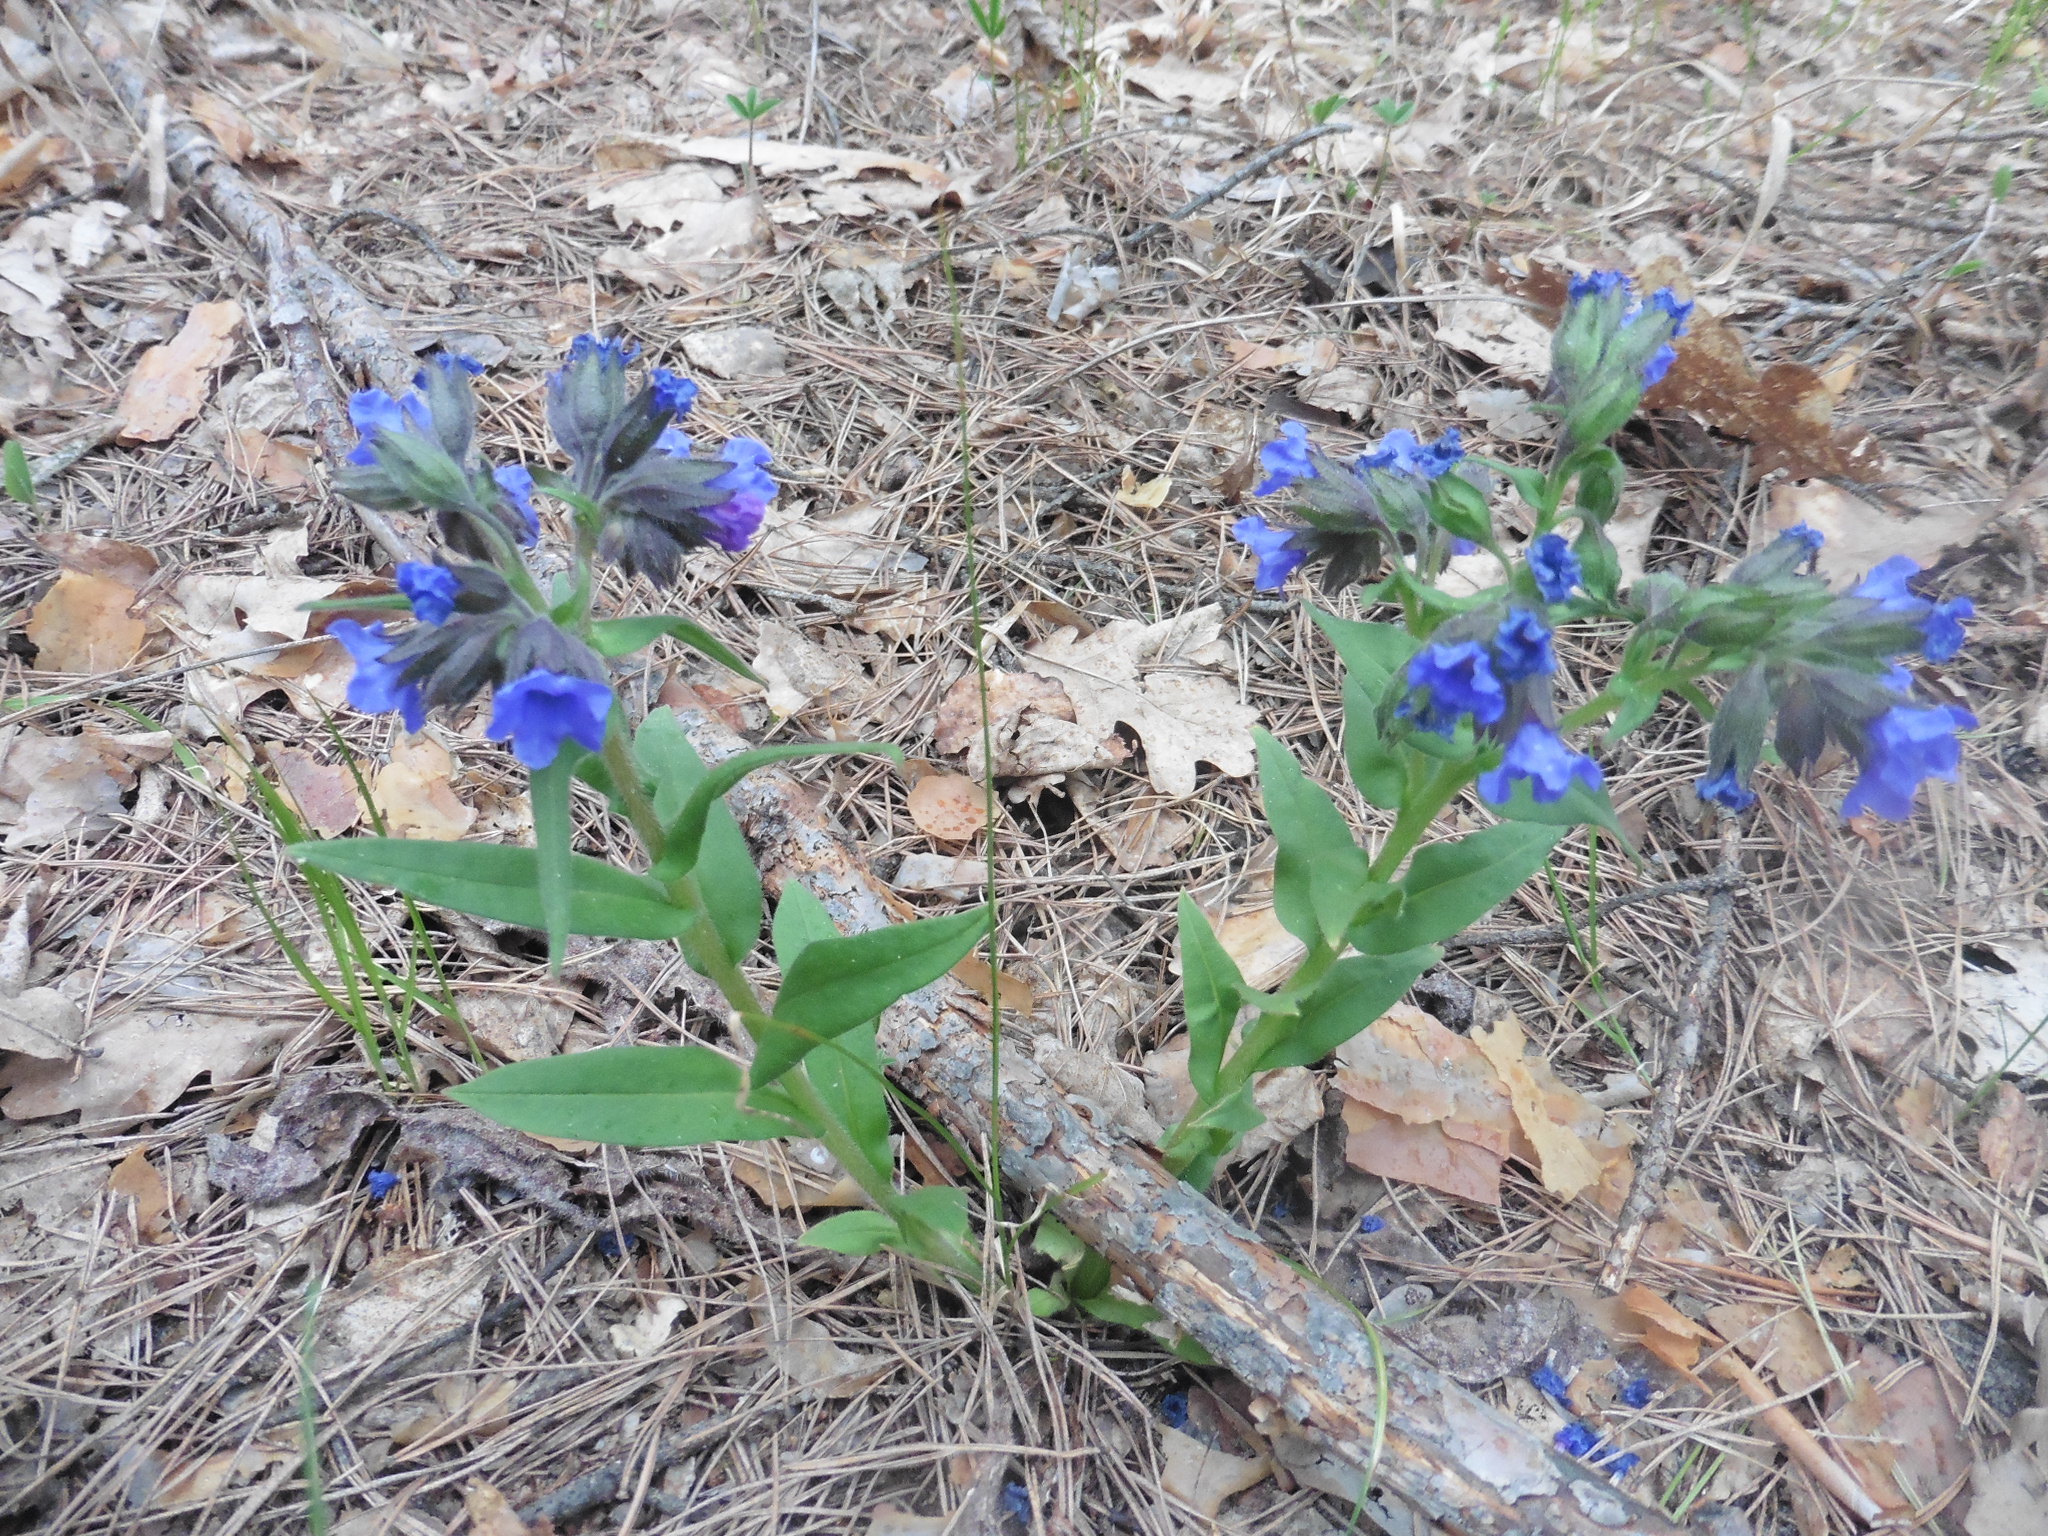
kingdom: Plantae
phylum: Tracheophyta
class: Magnoliopsida
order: Boraginales
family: Boraginaceae
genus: Pulmonaria
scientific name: Pulmonaria angustifolia
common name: Blue cowslip
